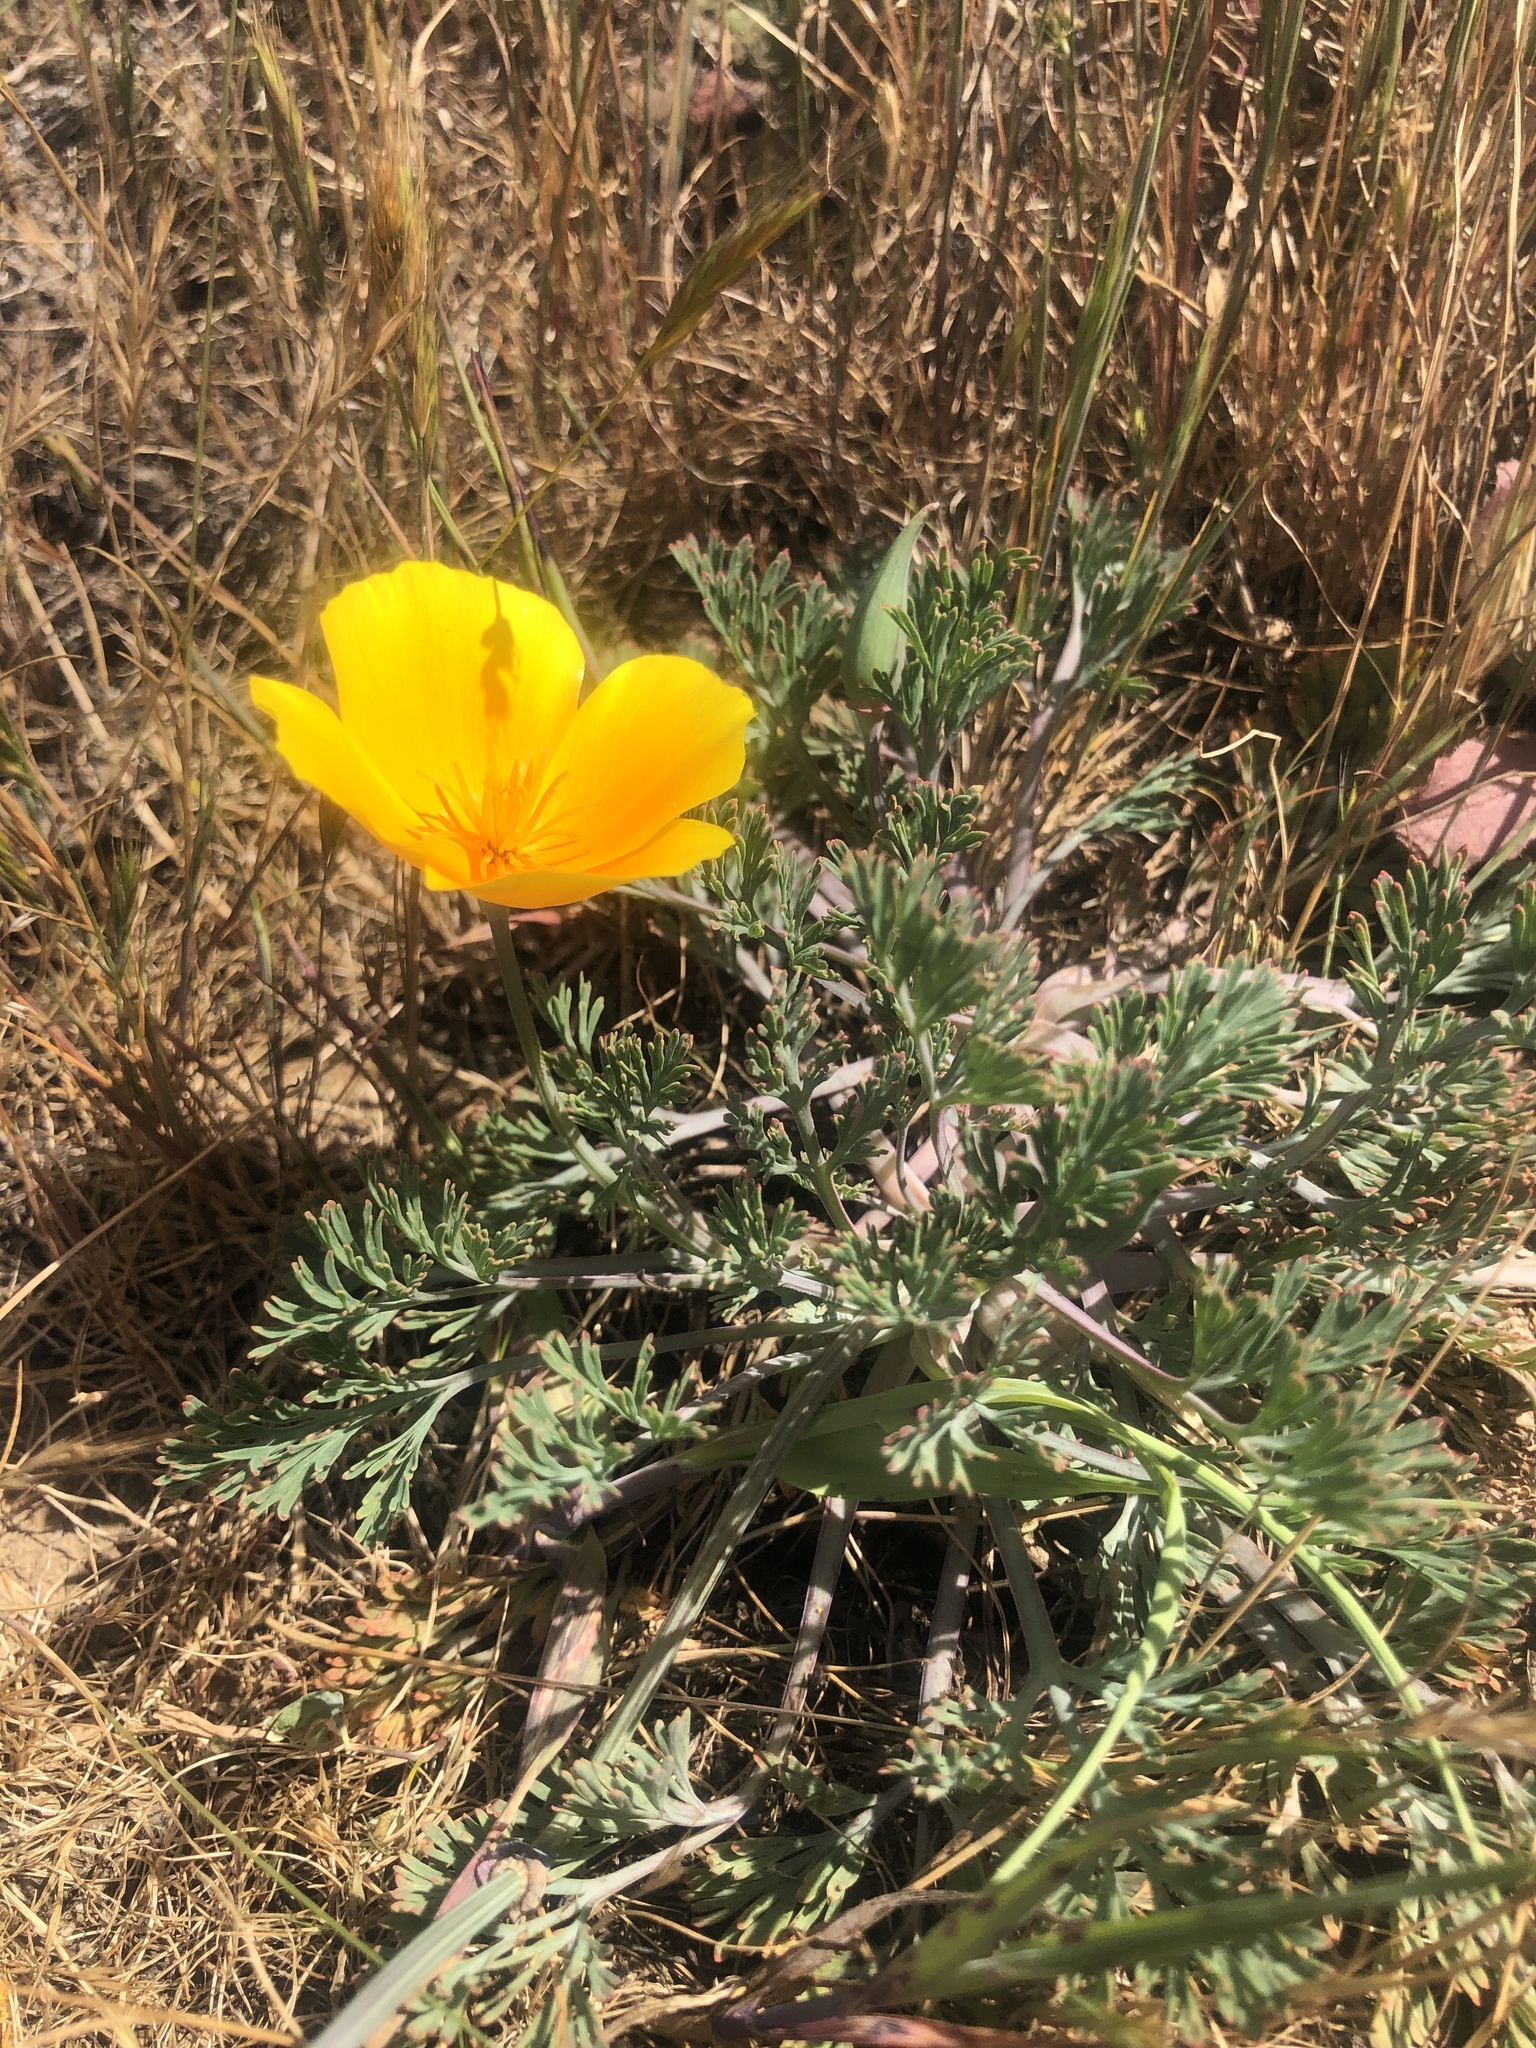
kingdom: Plantae
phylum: Tracheophyta
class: Magnoliopsida
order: Ranunculales
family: Papaveraceae
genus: Eschscholzia
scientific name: Eschscholzia californica
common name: California poppy
